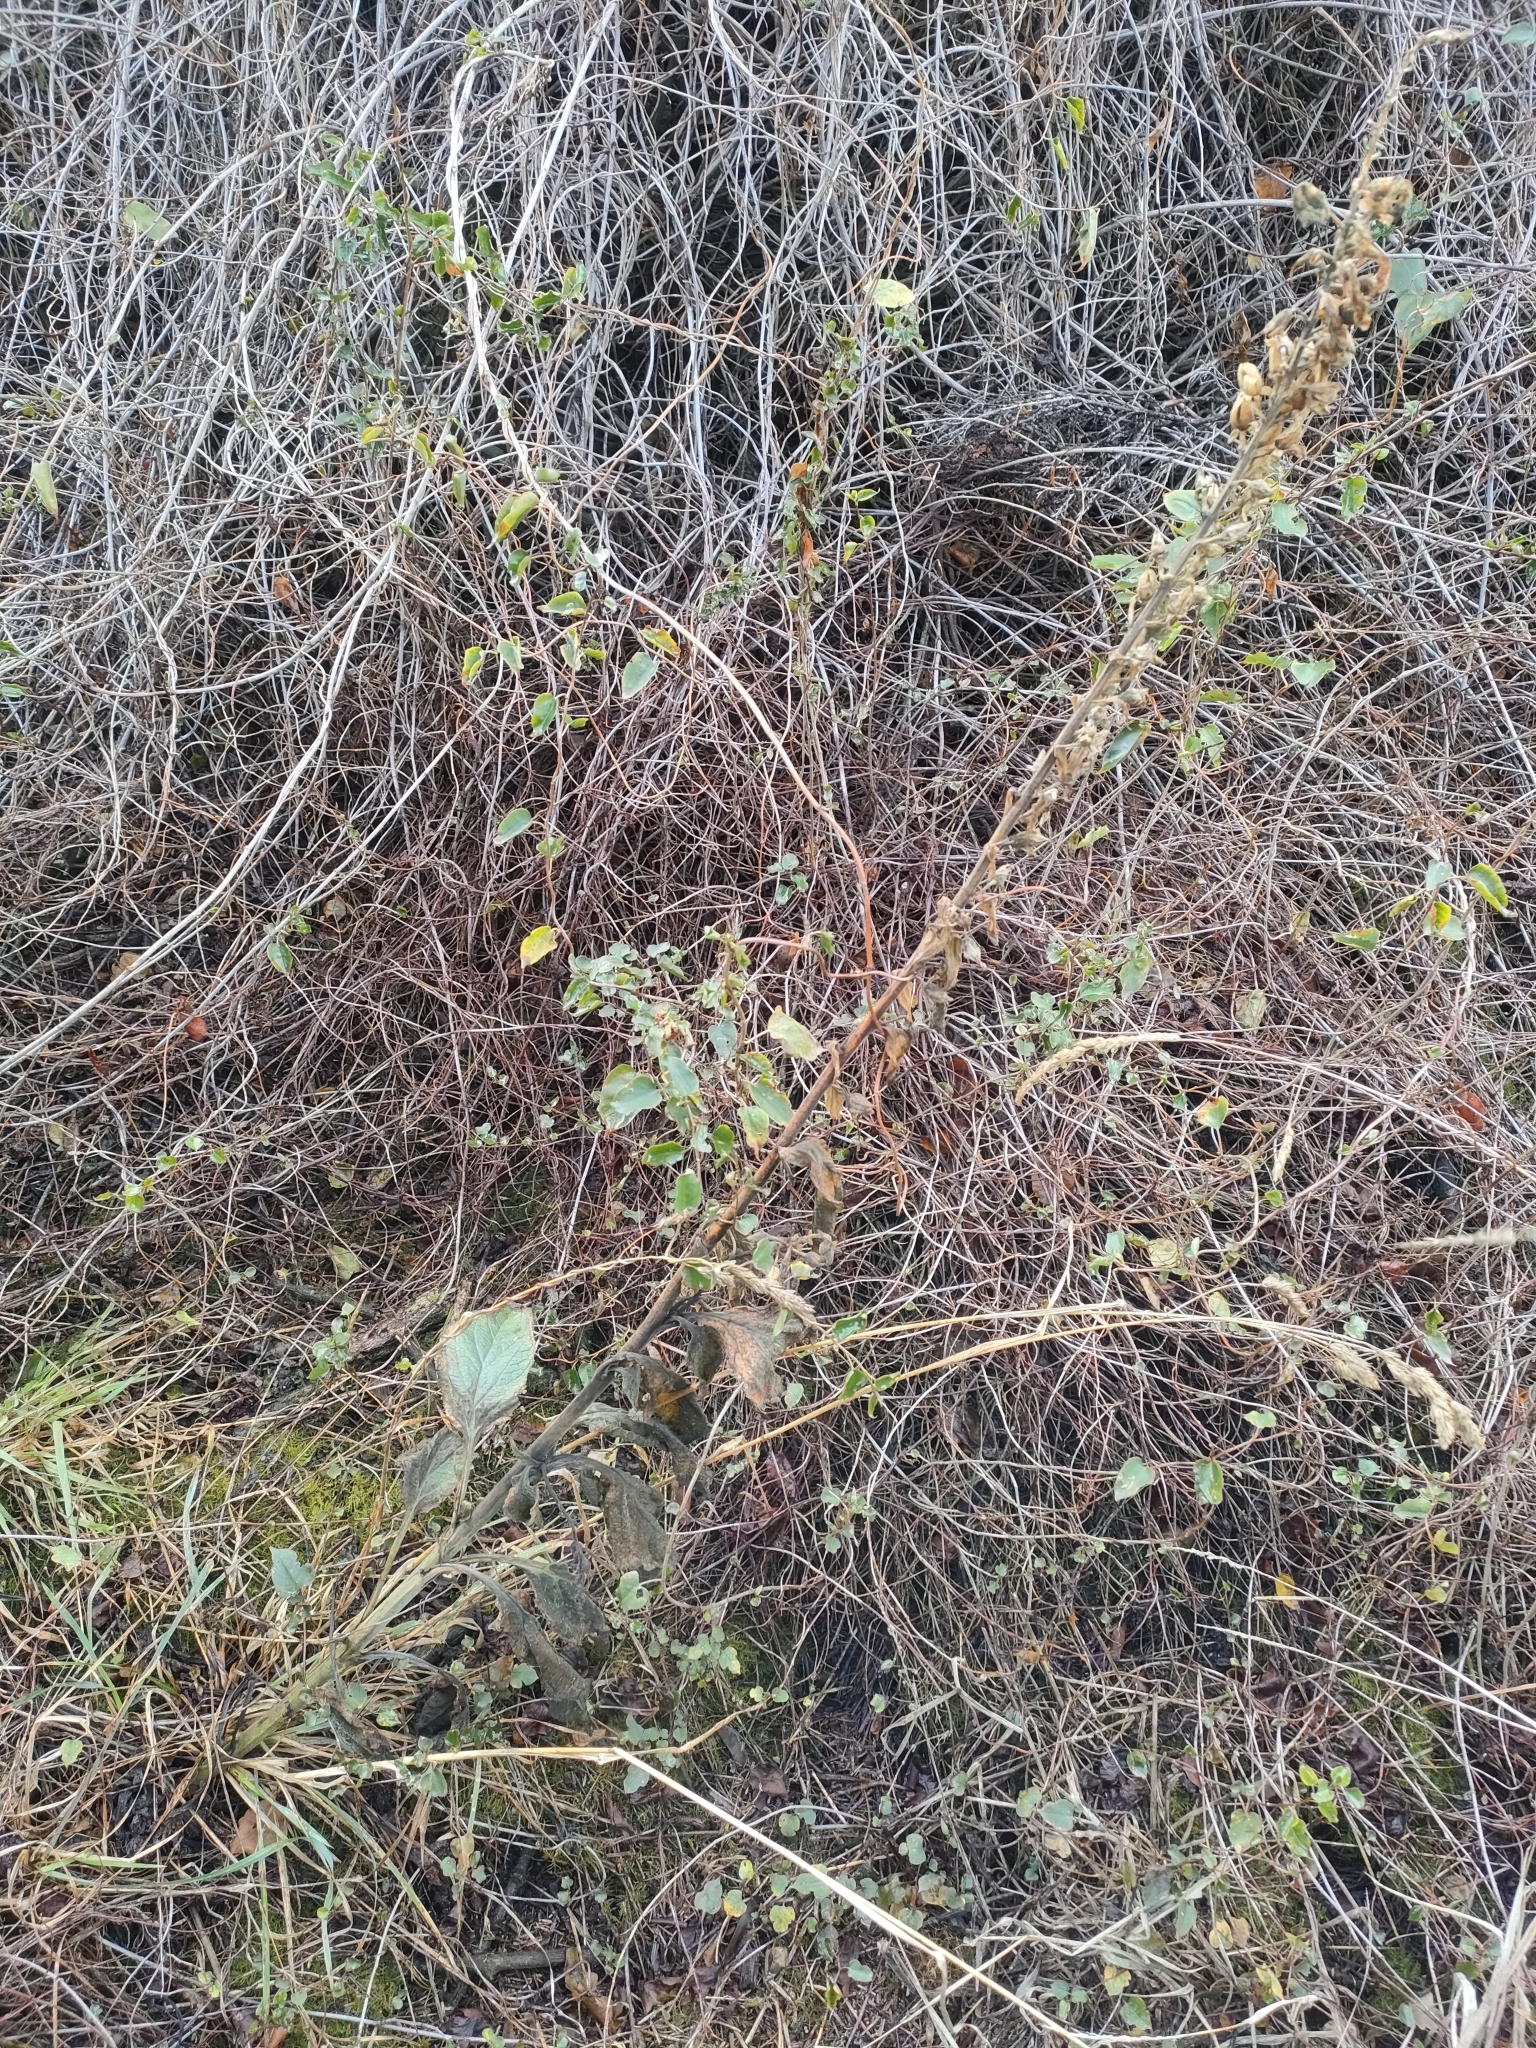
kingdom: Plantae
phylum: Tracheophyta
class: Magnoliopsida
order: Lamiales
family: Plantaginaceae
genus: Digitalis
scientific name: Digitalis purpurea
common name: Foxglove
